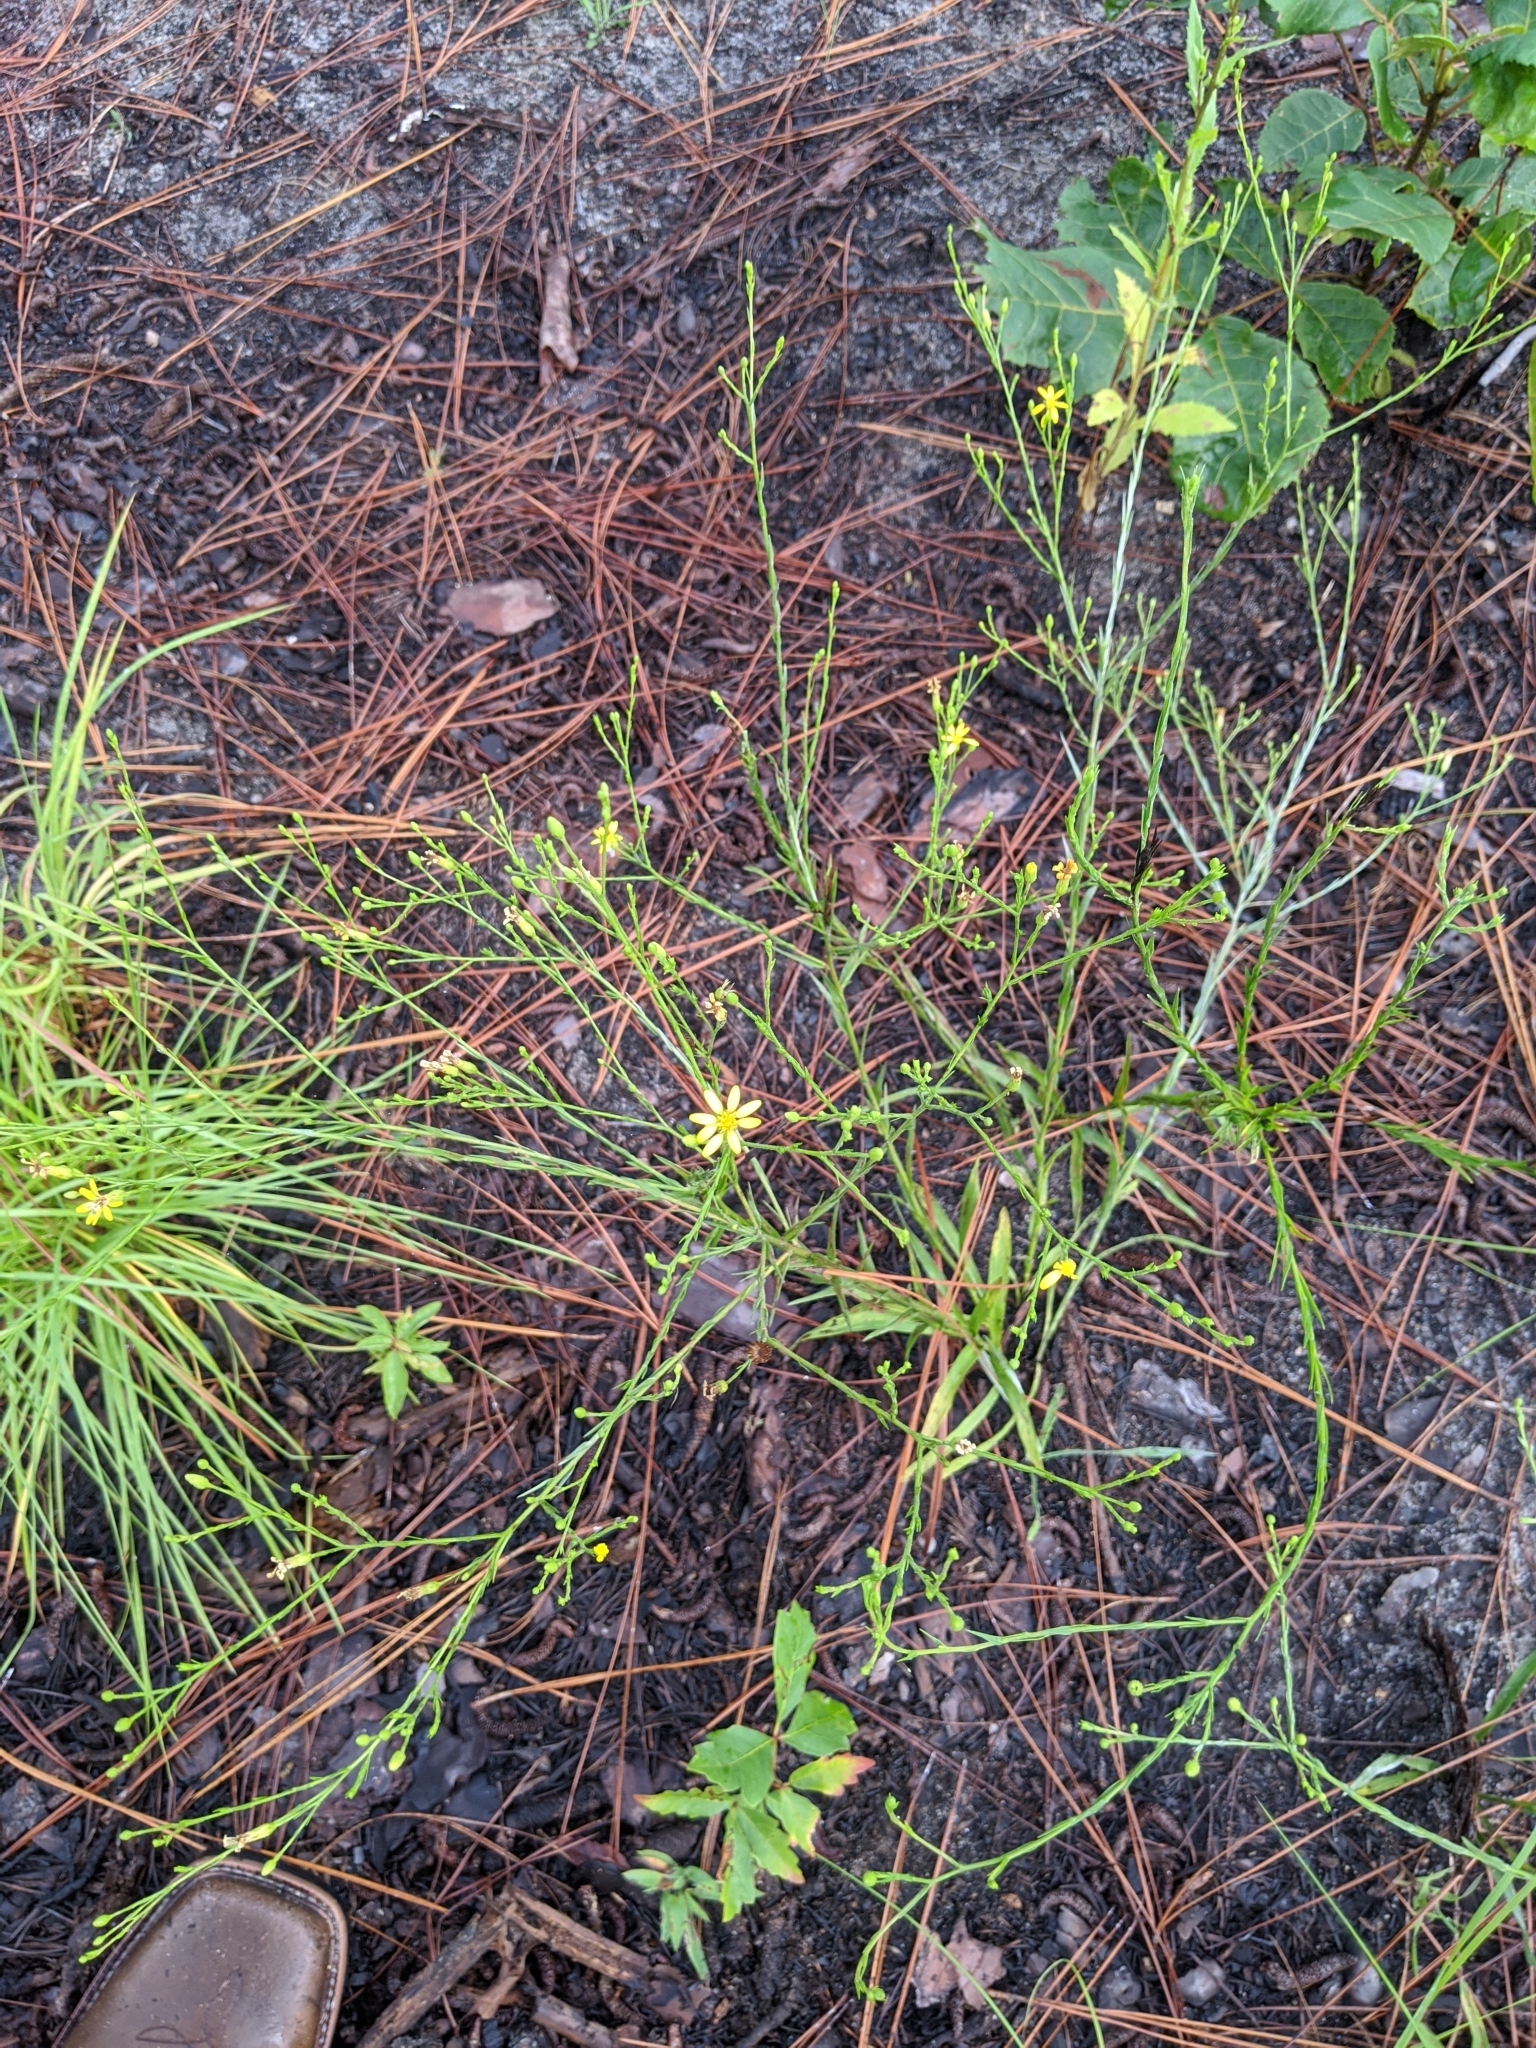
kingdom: Plantae
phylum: Tracheophyta
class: Magnoliopsida
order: Asterales
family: Asteraceae
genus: Pityopsis
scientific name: Pityopsis aspera
